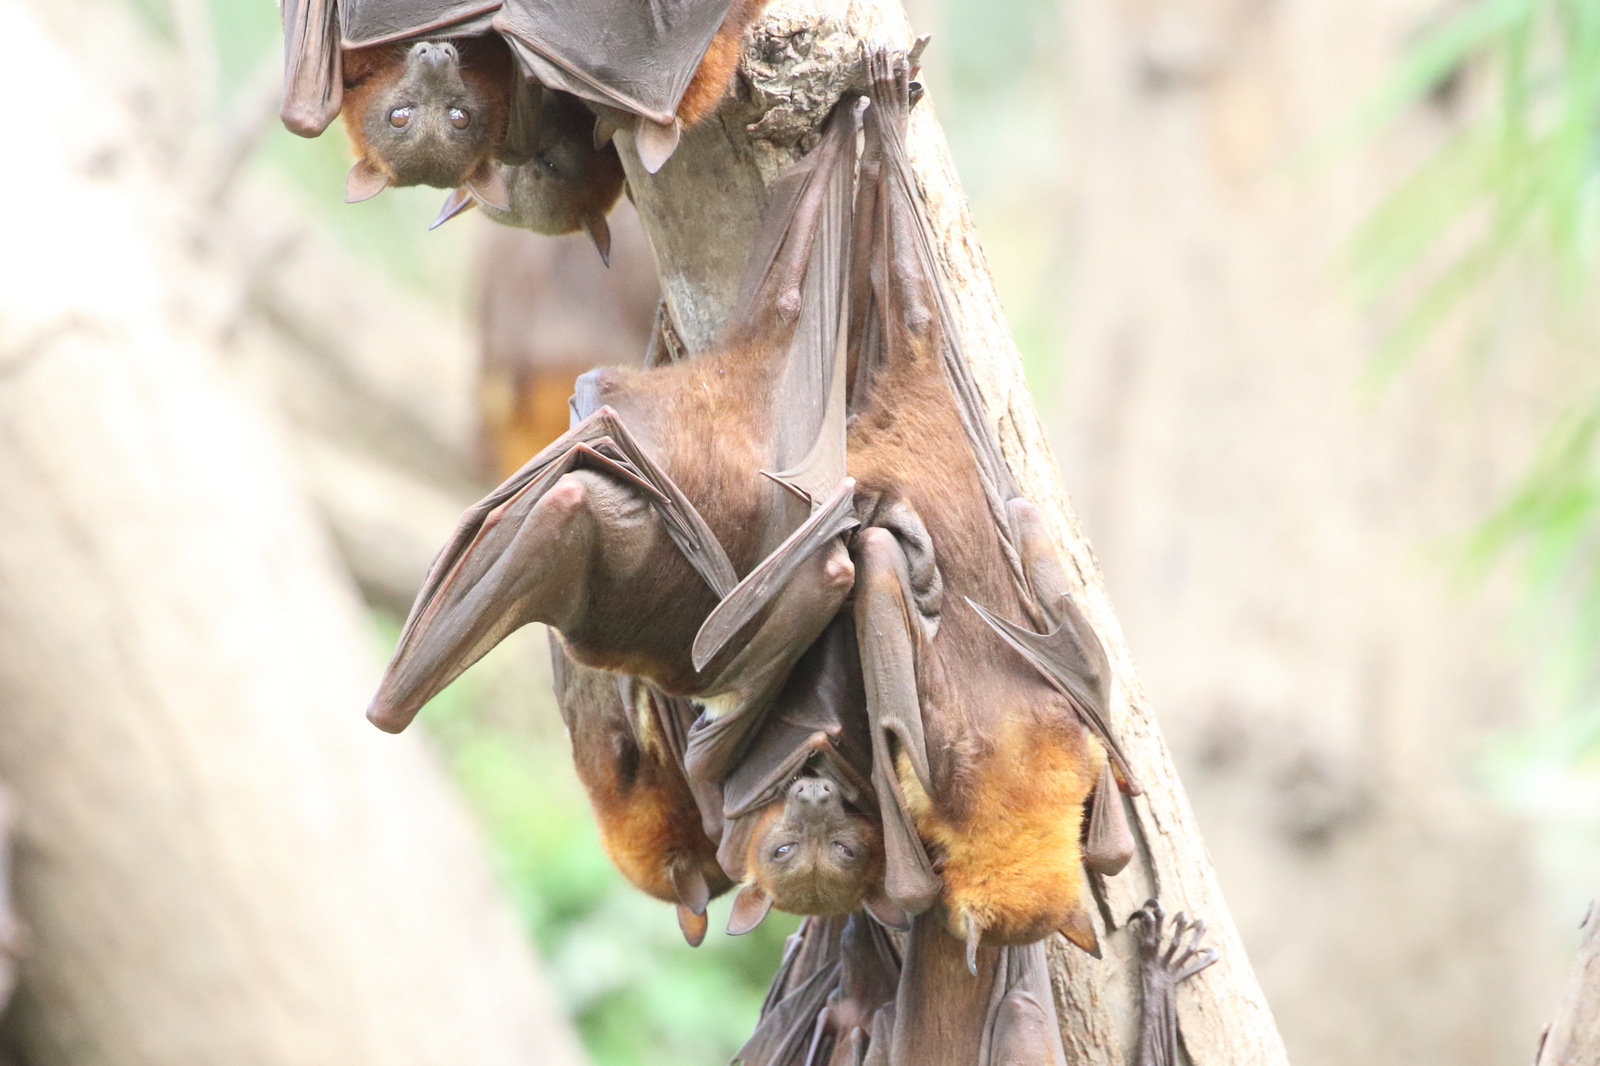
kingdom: Animalia
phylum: Chordata
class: Mammalia
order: Chiroptera
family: Pteropodidae
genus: Pteropus
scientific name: Pteropus scapulatus
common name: Little red flying fox
